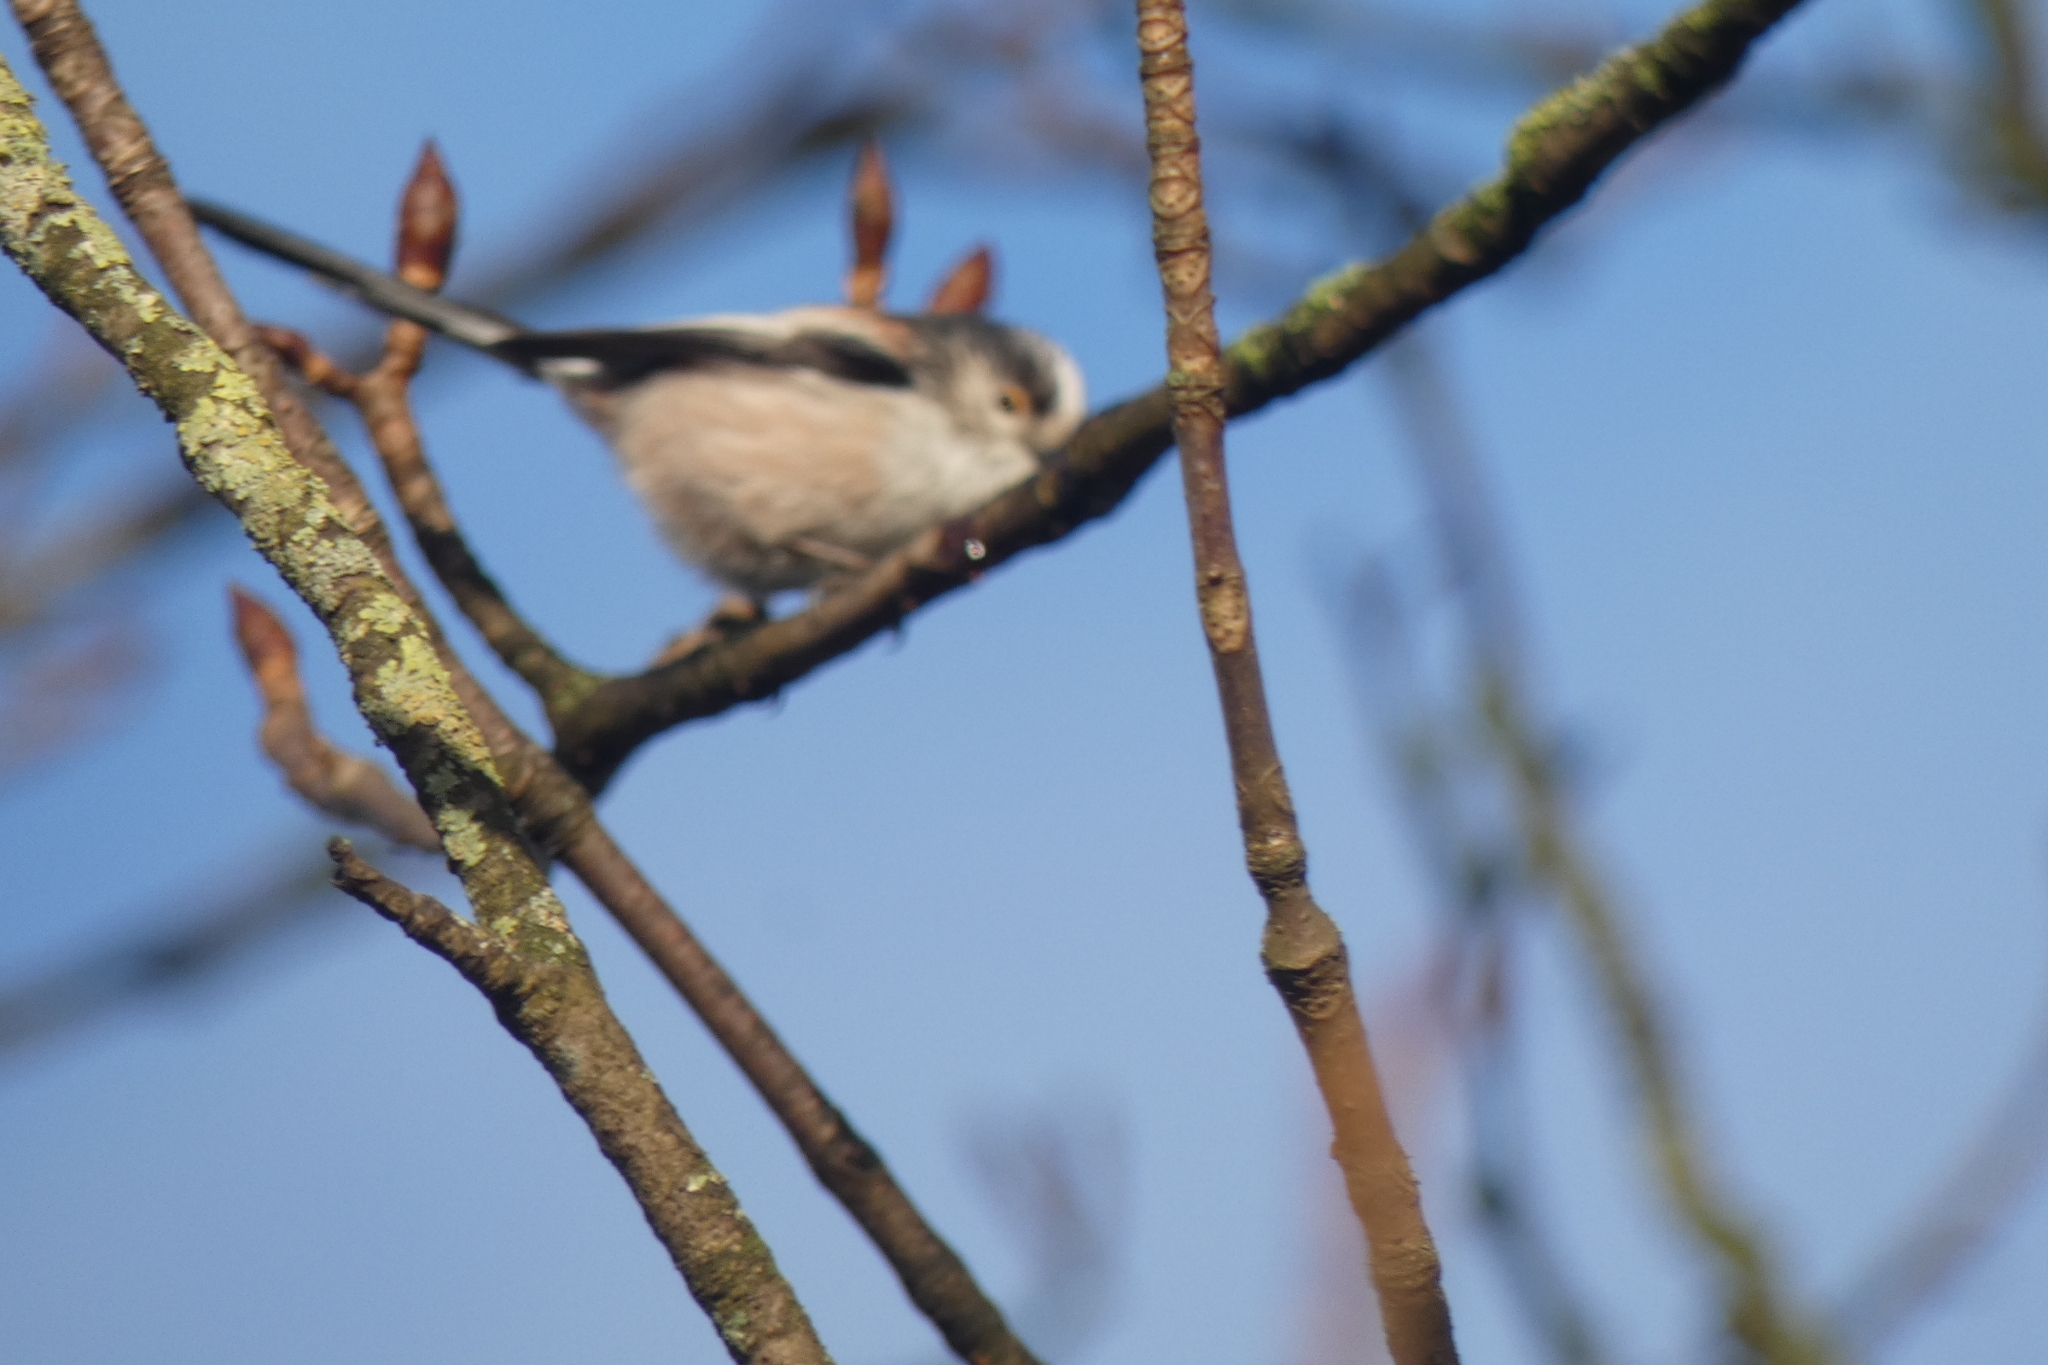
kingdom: Animalia
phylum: Chordata
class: Aves
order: Passeriformes
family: Aegithalidae
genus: Aegithalos
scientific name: Aegithalos caudatus
